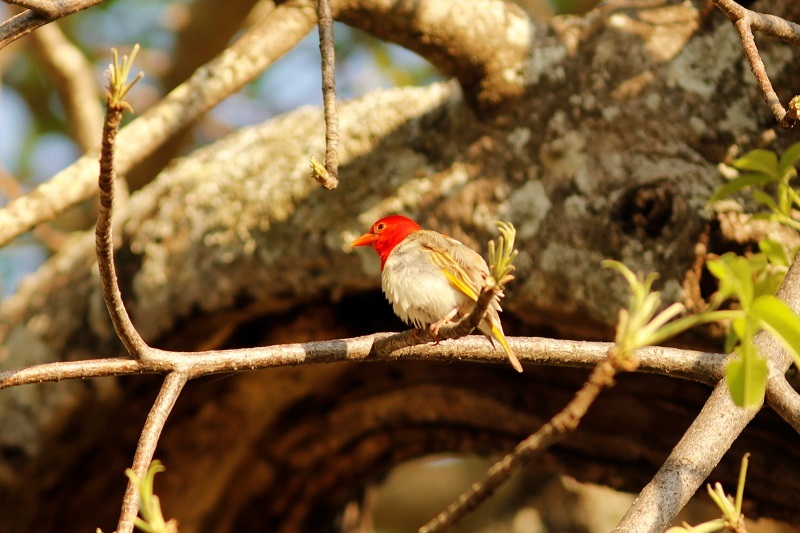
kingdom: Animalia
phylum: Chordata
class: Aves
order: Passeriformes
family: Ploceidae
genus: Anaplectes
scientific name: Anaplectes rubriceps
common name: Red-headed weaver
